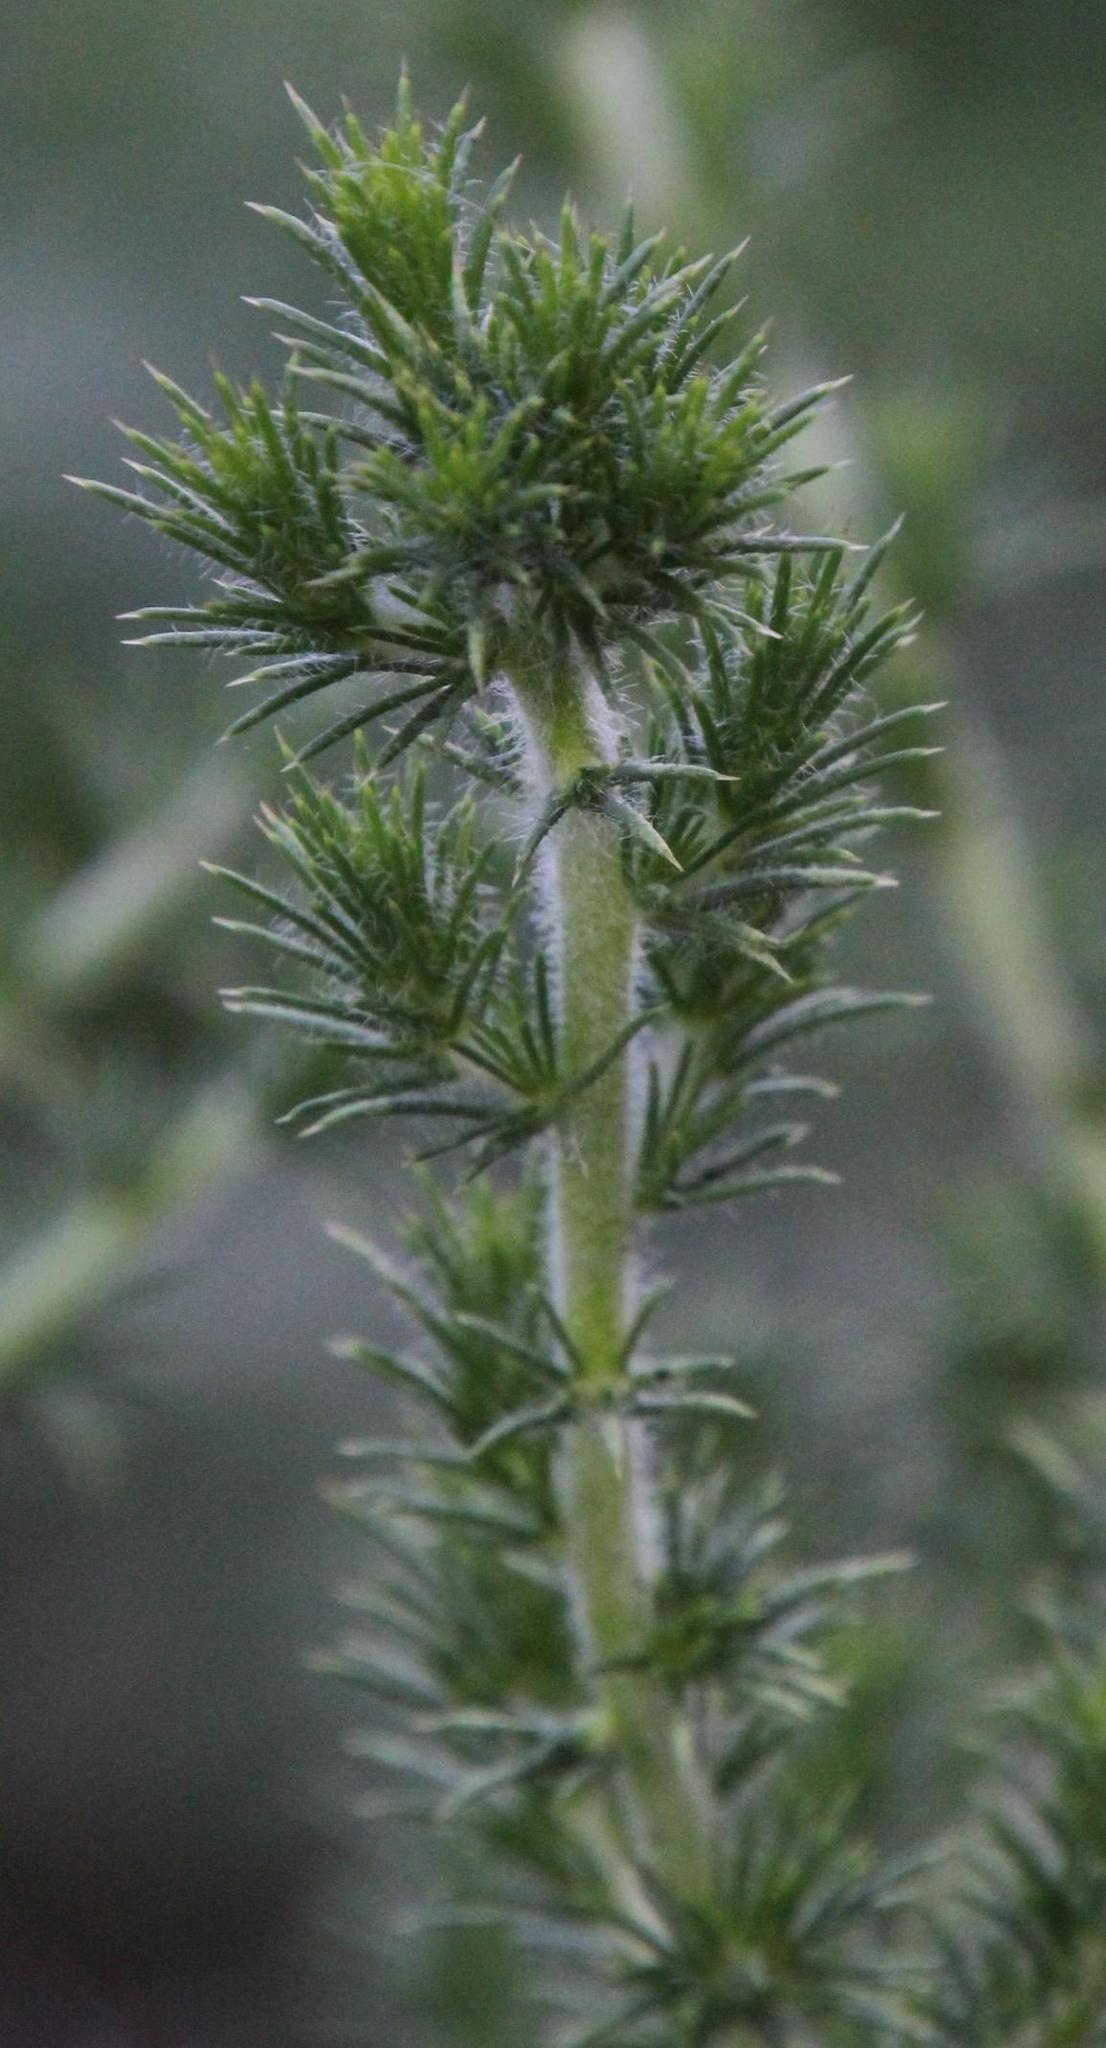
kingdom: Plantae
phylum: Tracheophyta
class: Magnoliopsida
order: Fabales
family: Fabaceae
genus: Aspalathus
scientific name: Aspalathus chenopoda
